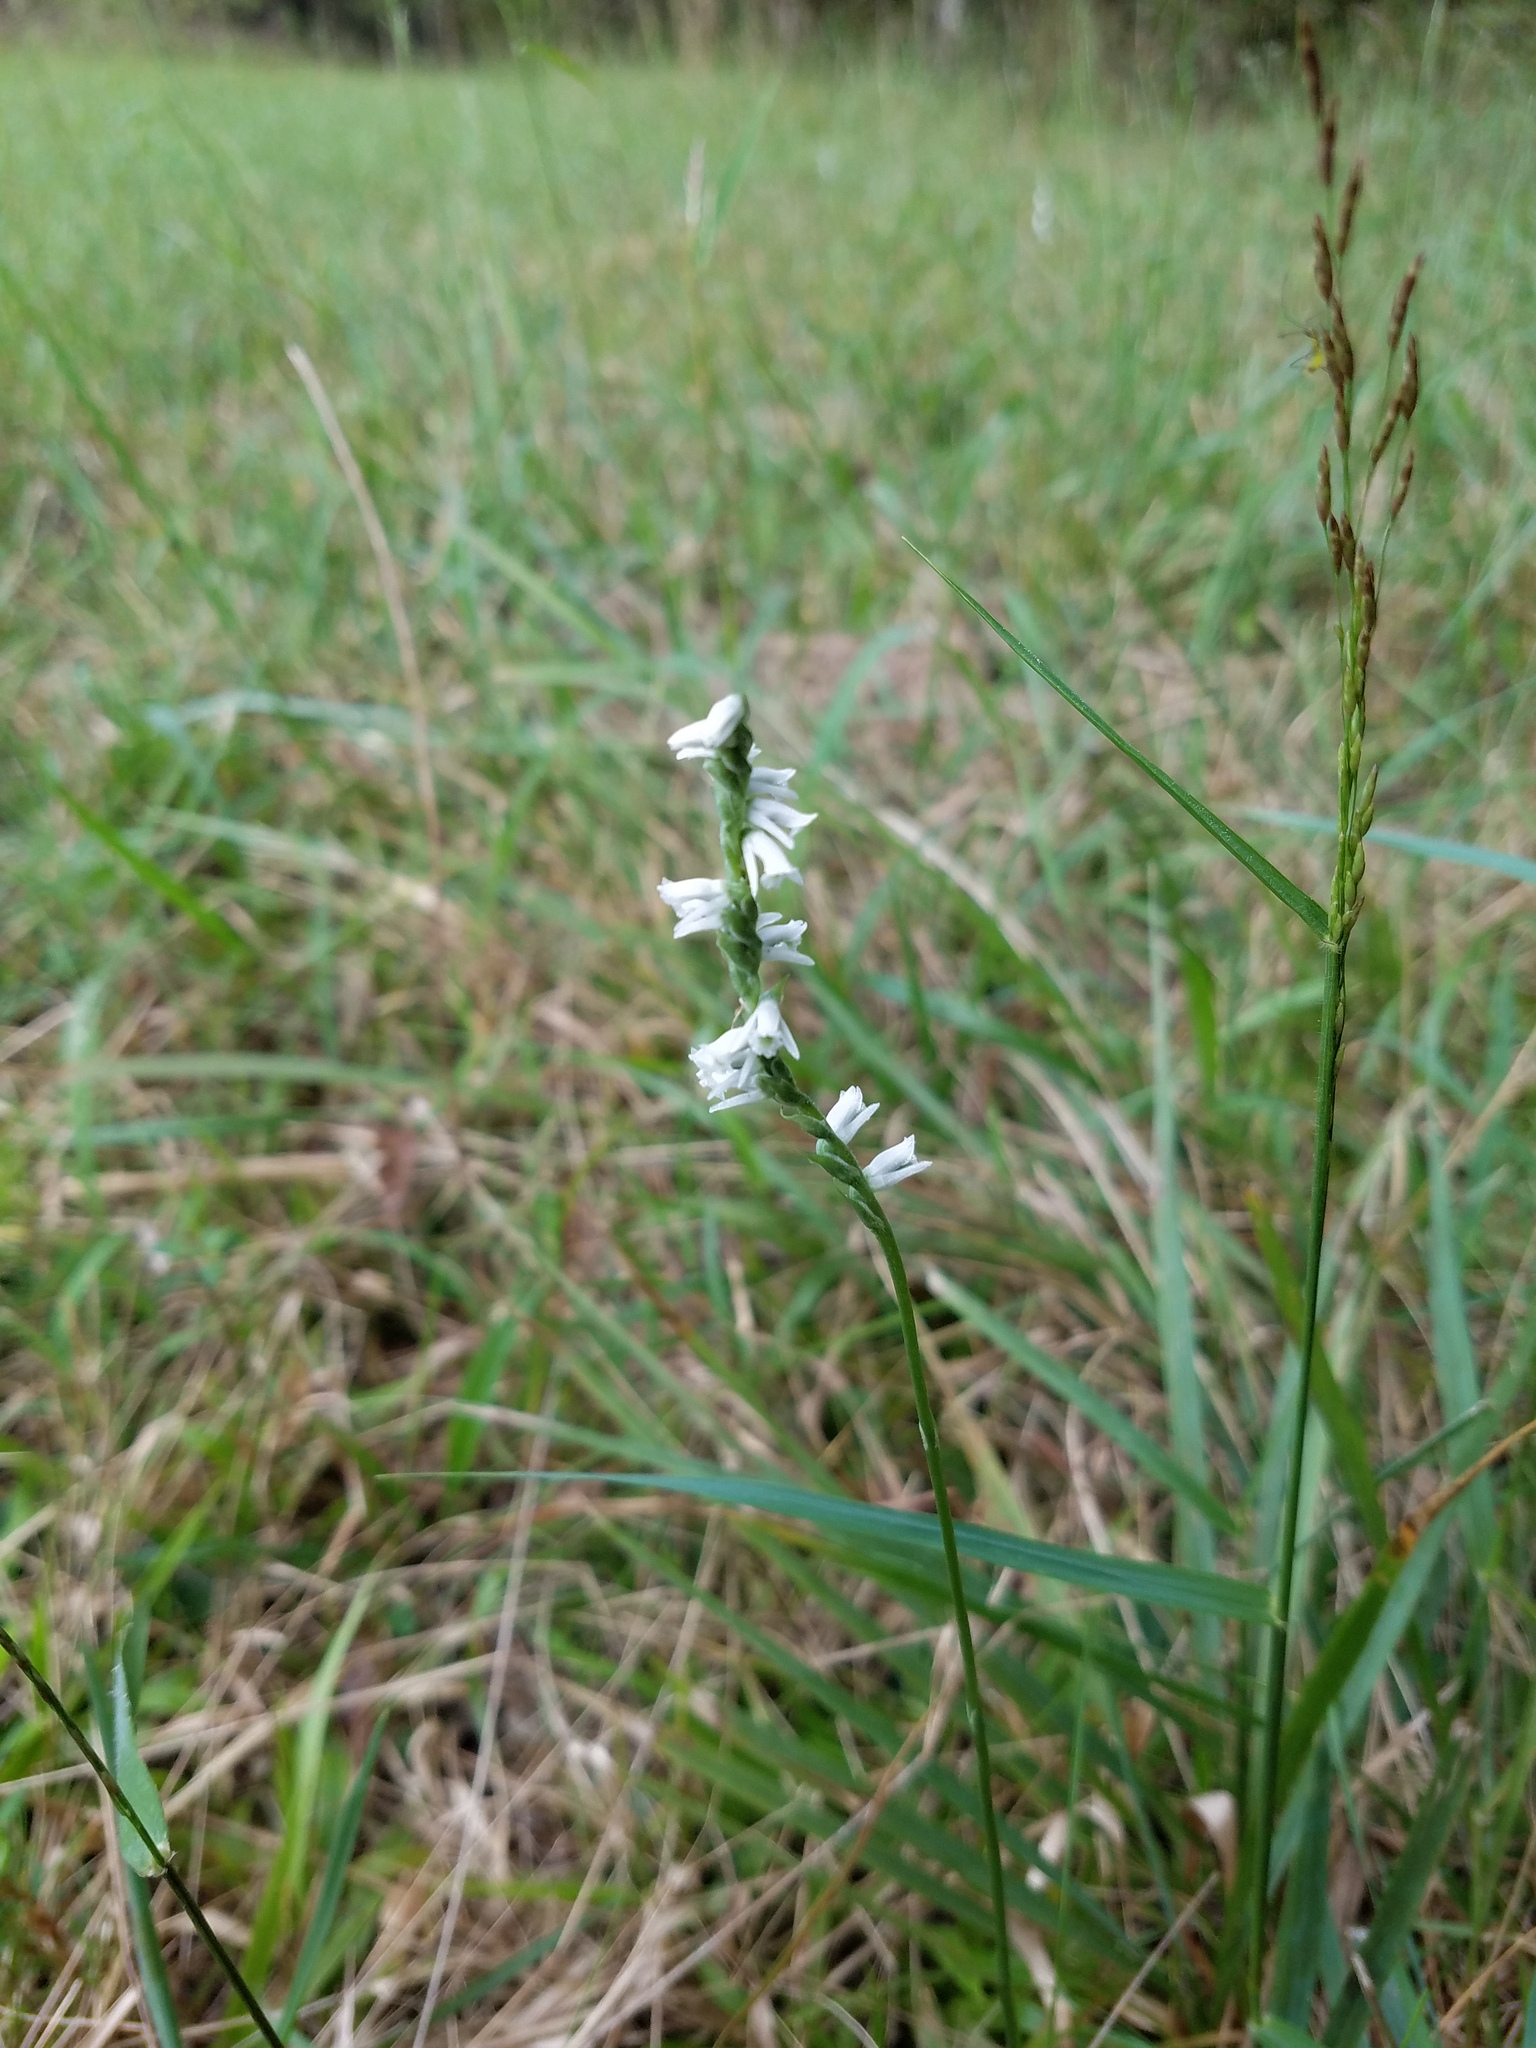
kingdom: Plantae
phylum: Tracheophyta
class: Liliopsida
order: Asparagales
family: Orchidaceae
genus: Spiranthes
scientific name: Spiranthes lacera
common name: Northern slender ladies'-tresses
